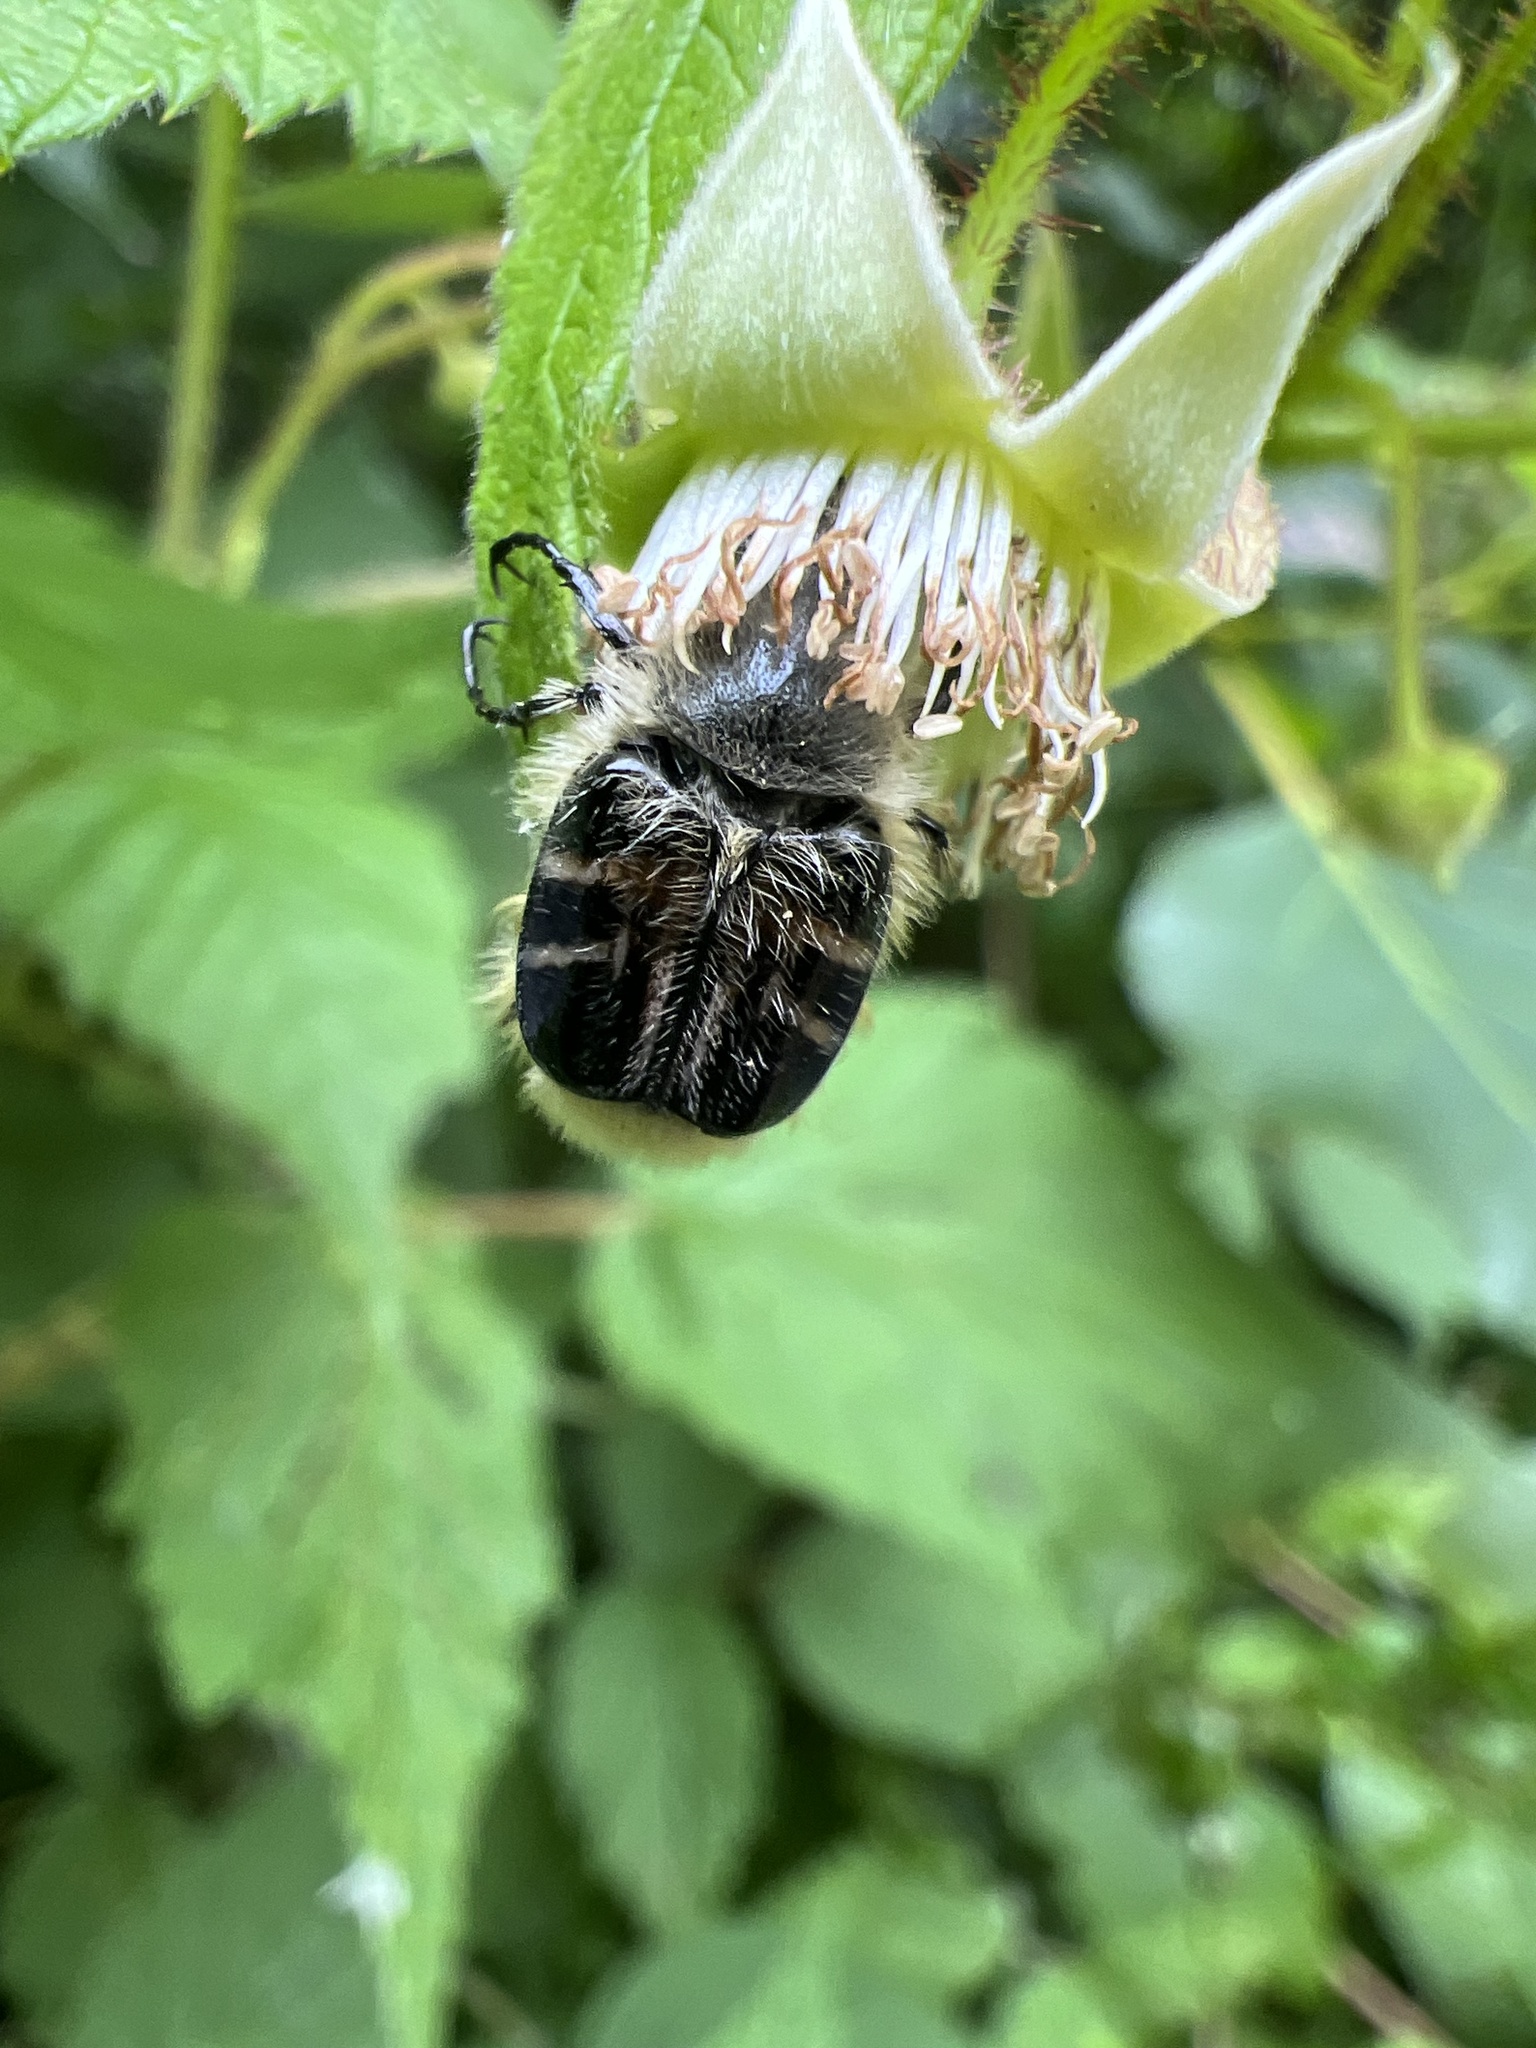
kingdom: Animalia
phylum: Arthropoda
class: Insecta
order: Coleoptera
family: Scarabaeidae
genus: Trichiotinus
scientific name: Trichiotinus assimilis
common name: Bee-mimic beetle
